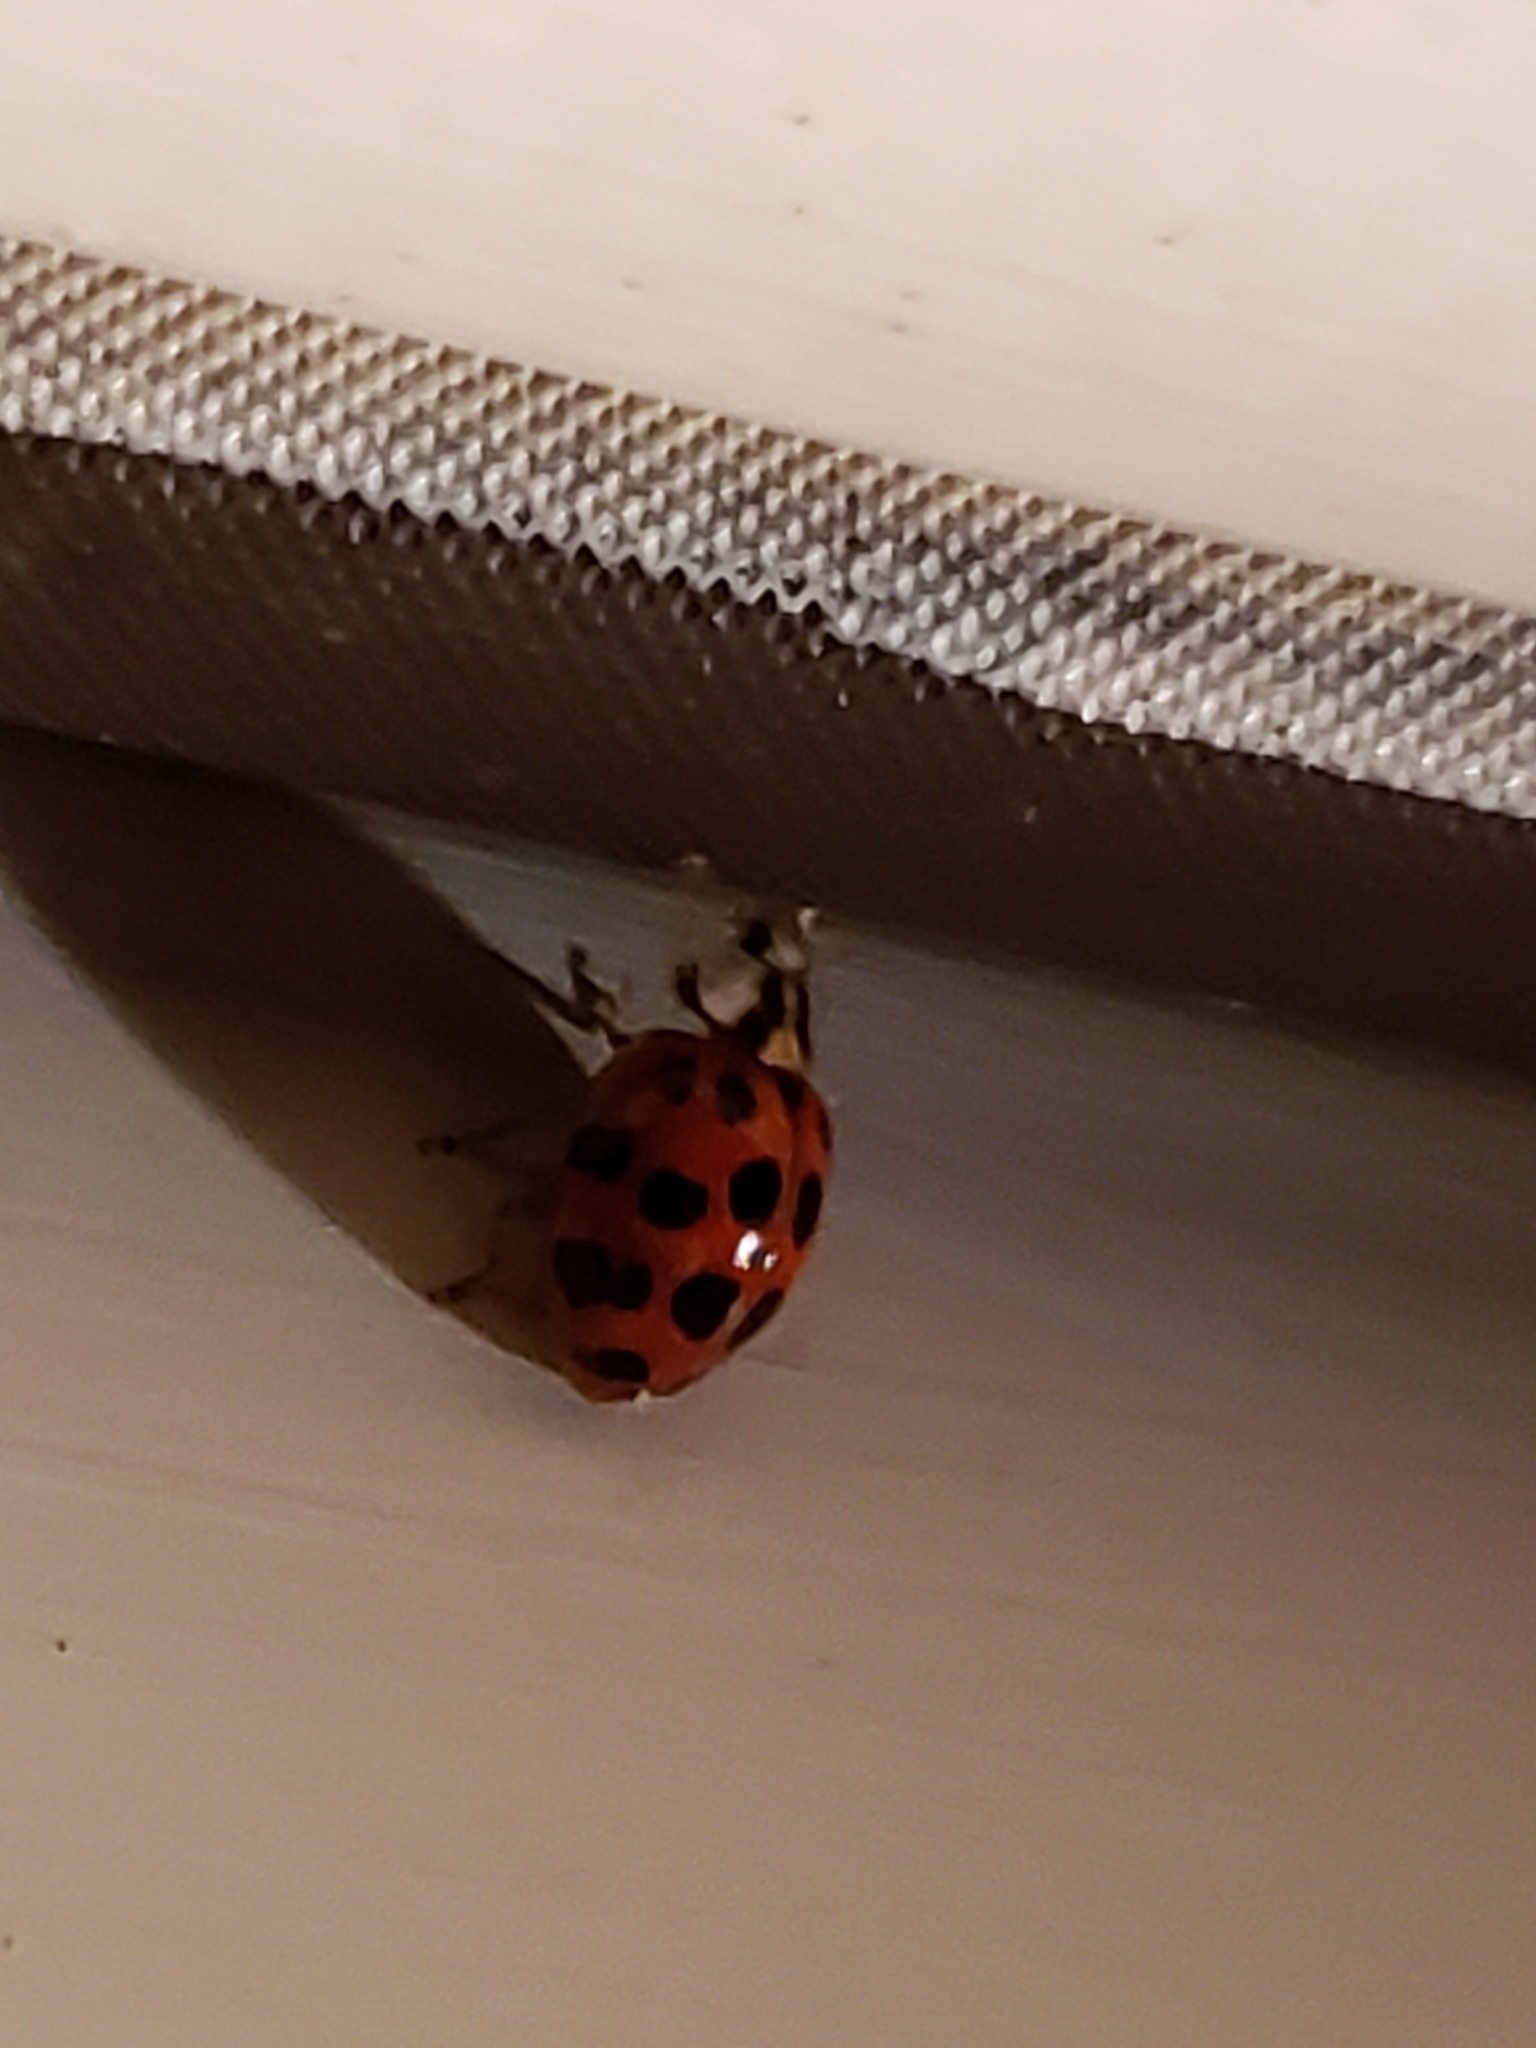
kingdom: Animalia
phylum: Arthropoda
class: Insecta
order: Coleoptera
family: Coccinellidae
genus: Harmonia
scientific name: Harmonia axyridis
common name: Harlequin ladybird
